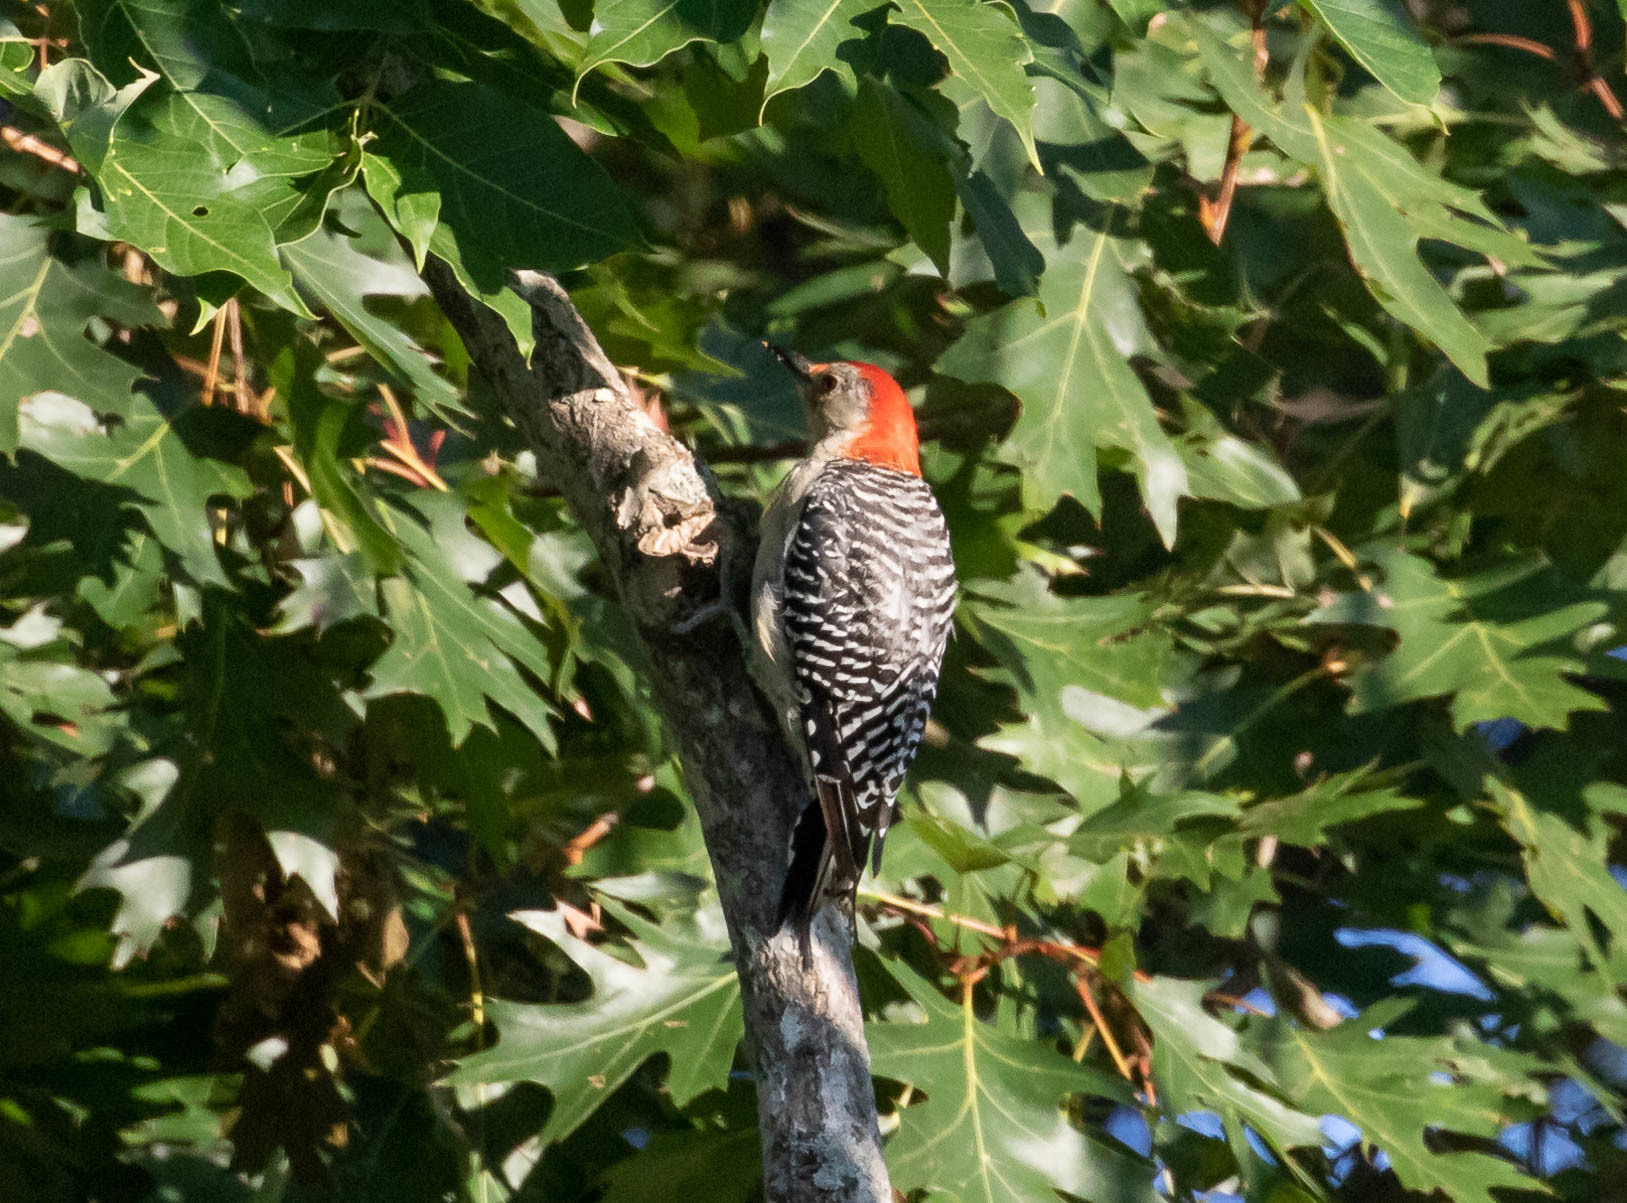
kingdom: Animalia
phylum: Chordata
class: Aves
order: Piciformes
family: Picidae
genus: Melanerpes
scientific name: Melanerpes carolinus
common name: Red-bellied woodpecker
